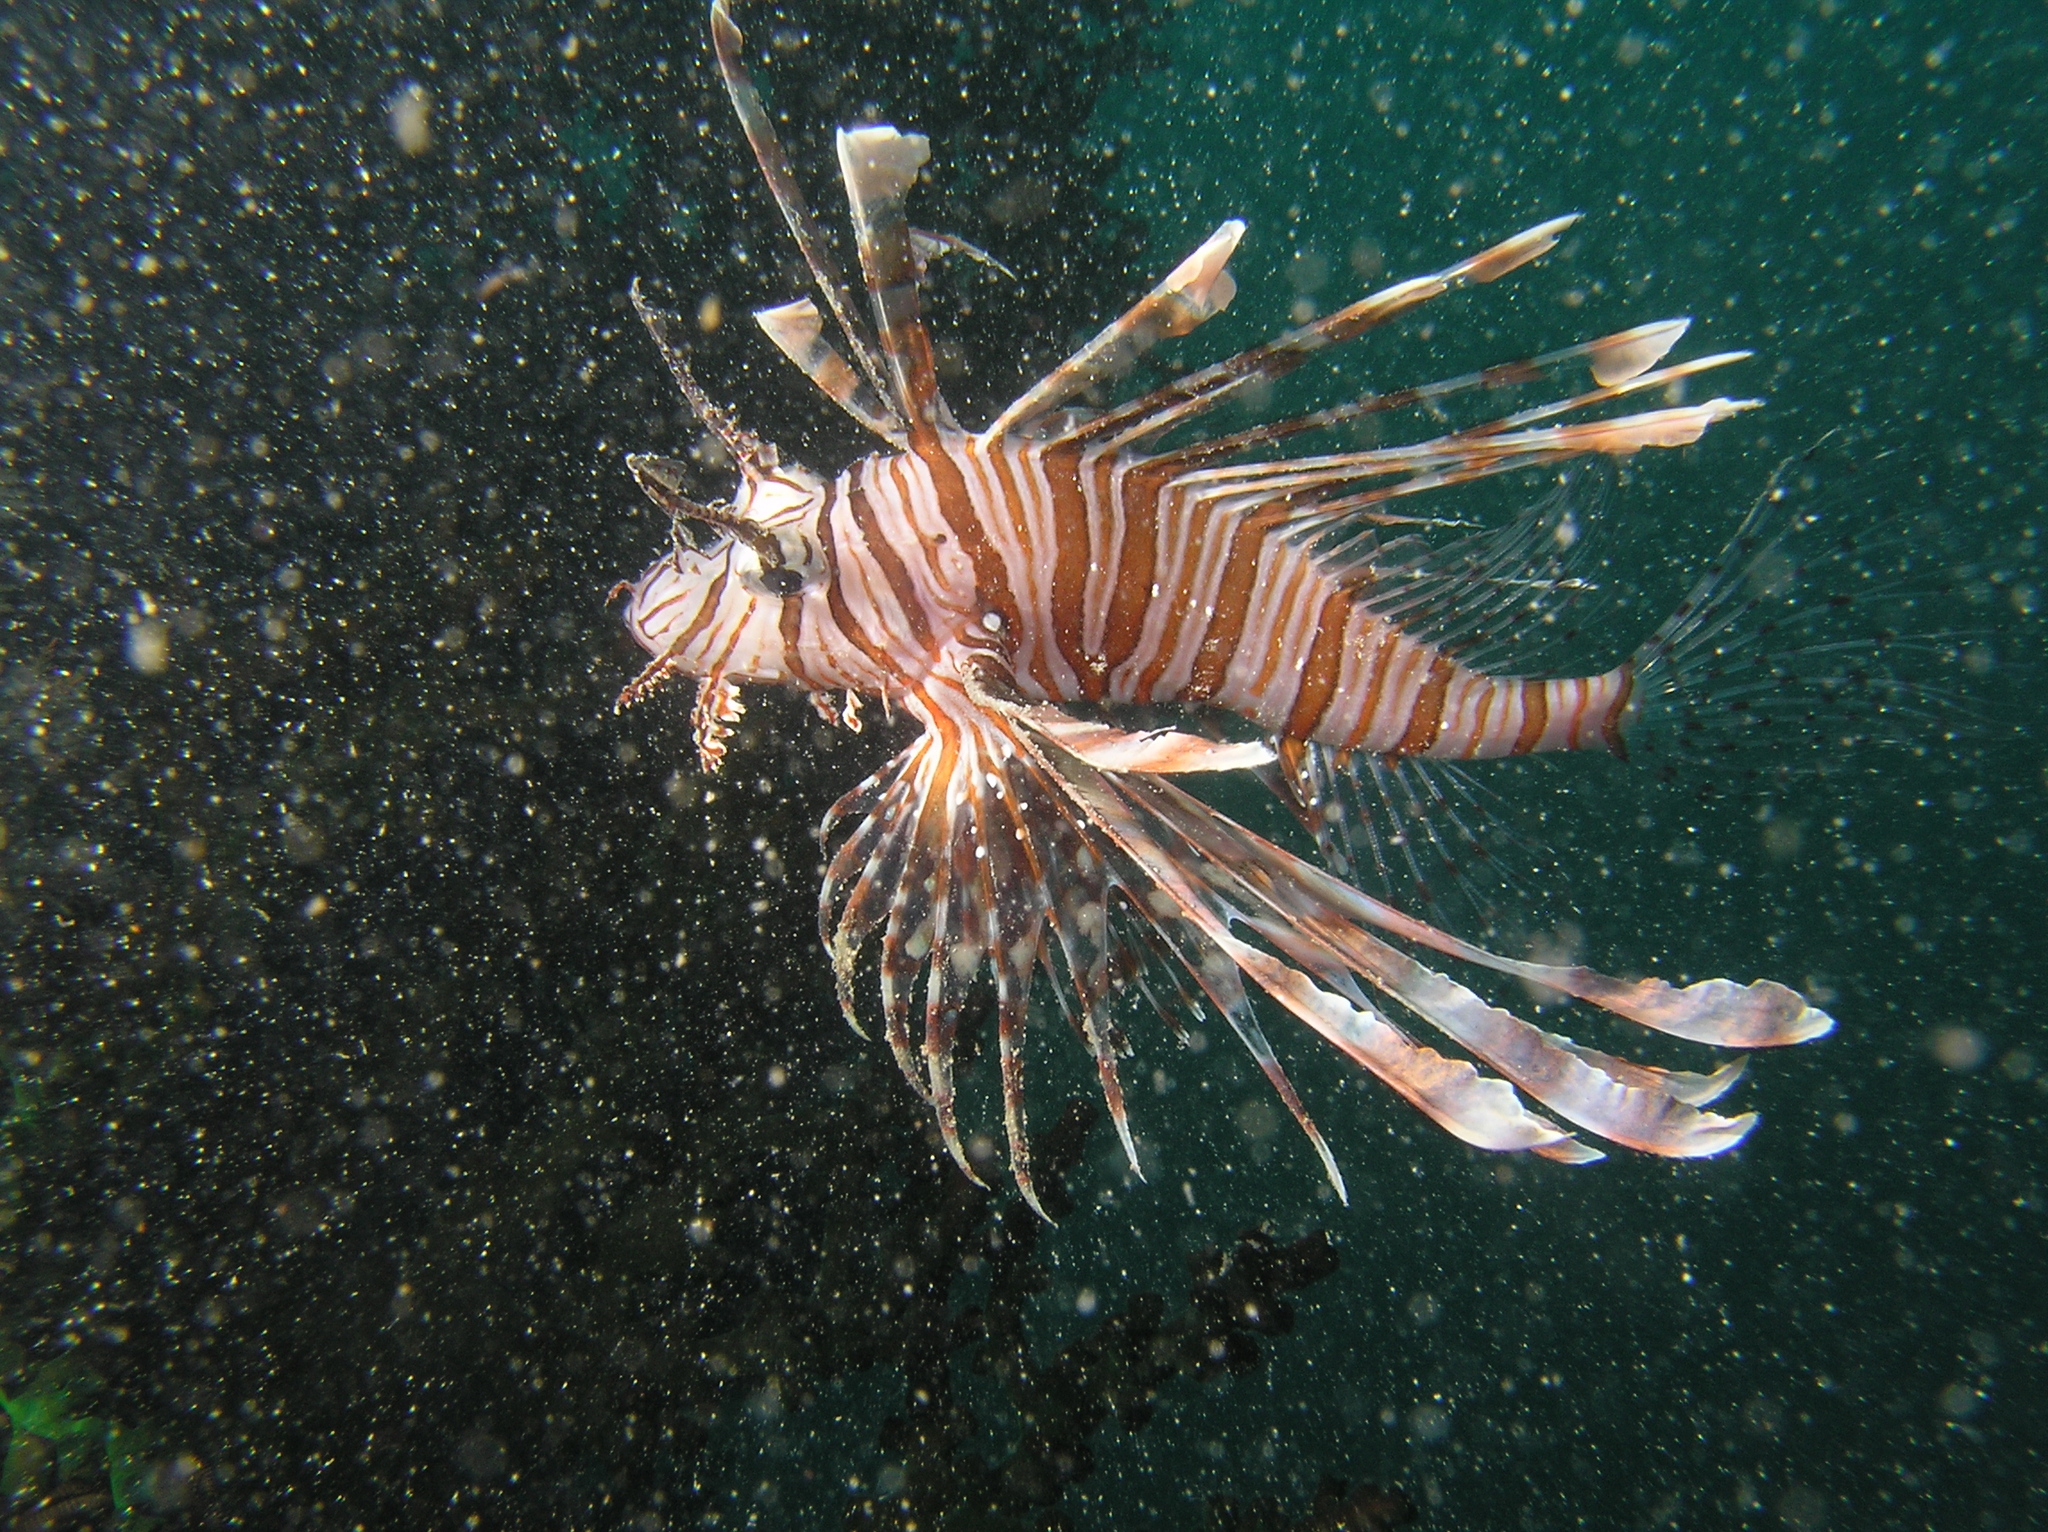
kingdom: Animalia
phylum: Chordata
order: Scorpaeniformes
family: Scorpaenidae
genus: Pterois
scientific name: Pterois volitans
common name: Lionfish
